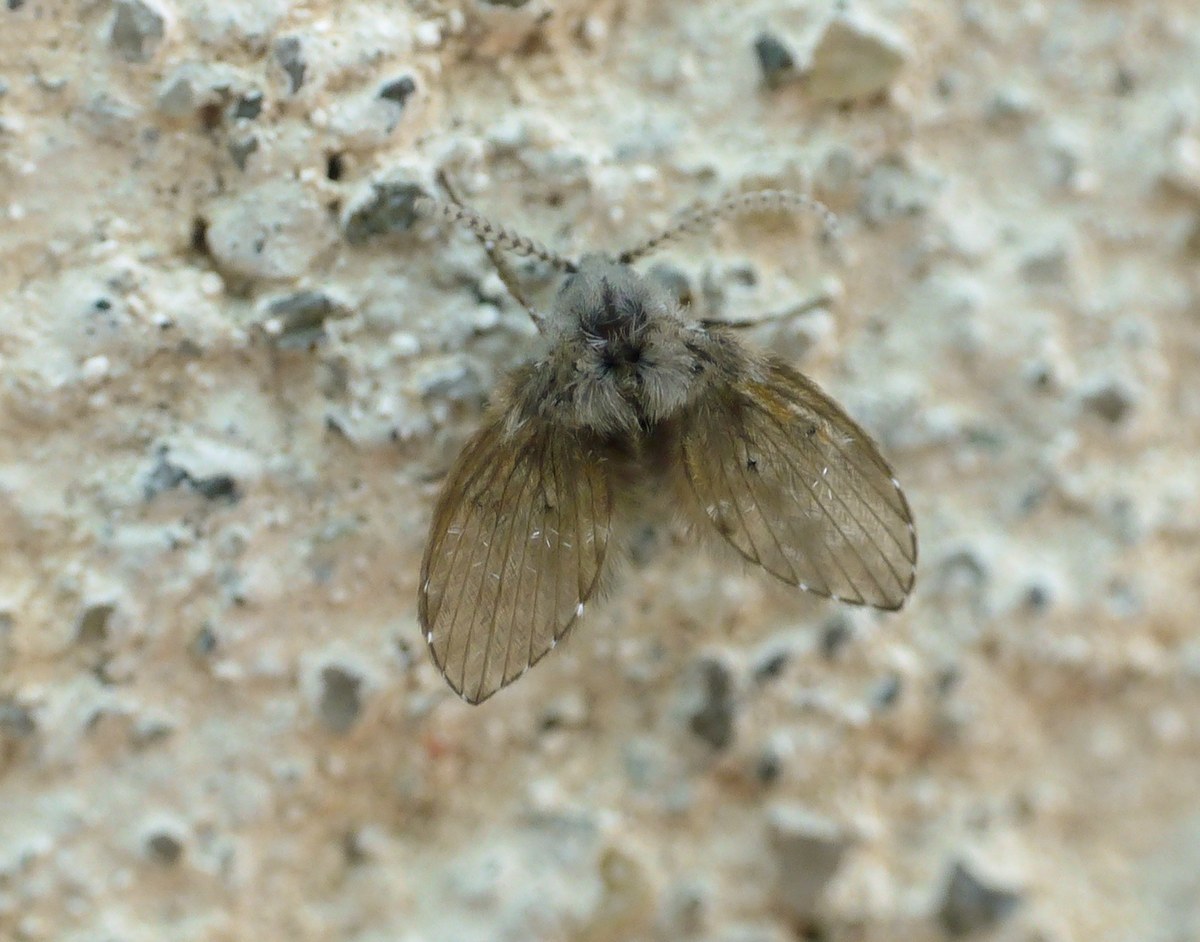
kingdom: Animalia
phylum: Arthropoda
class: Insecta
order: Diptera
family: Psychodidae
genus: Clogmia
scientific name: Clogmia albipunctatus
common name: White-spotted moth fly
